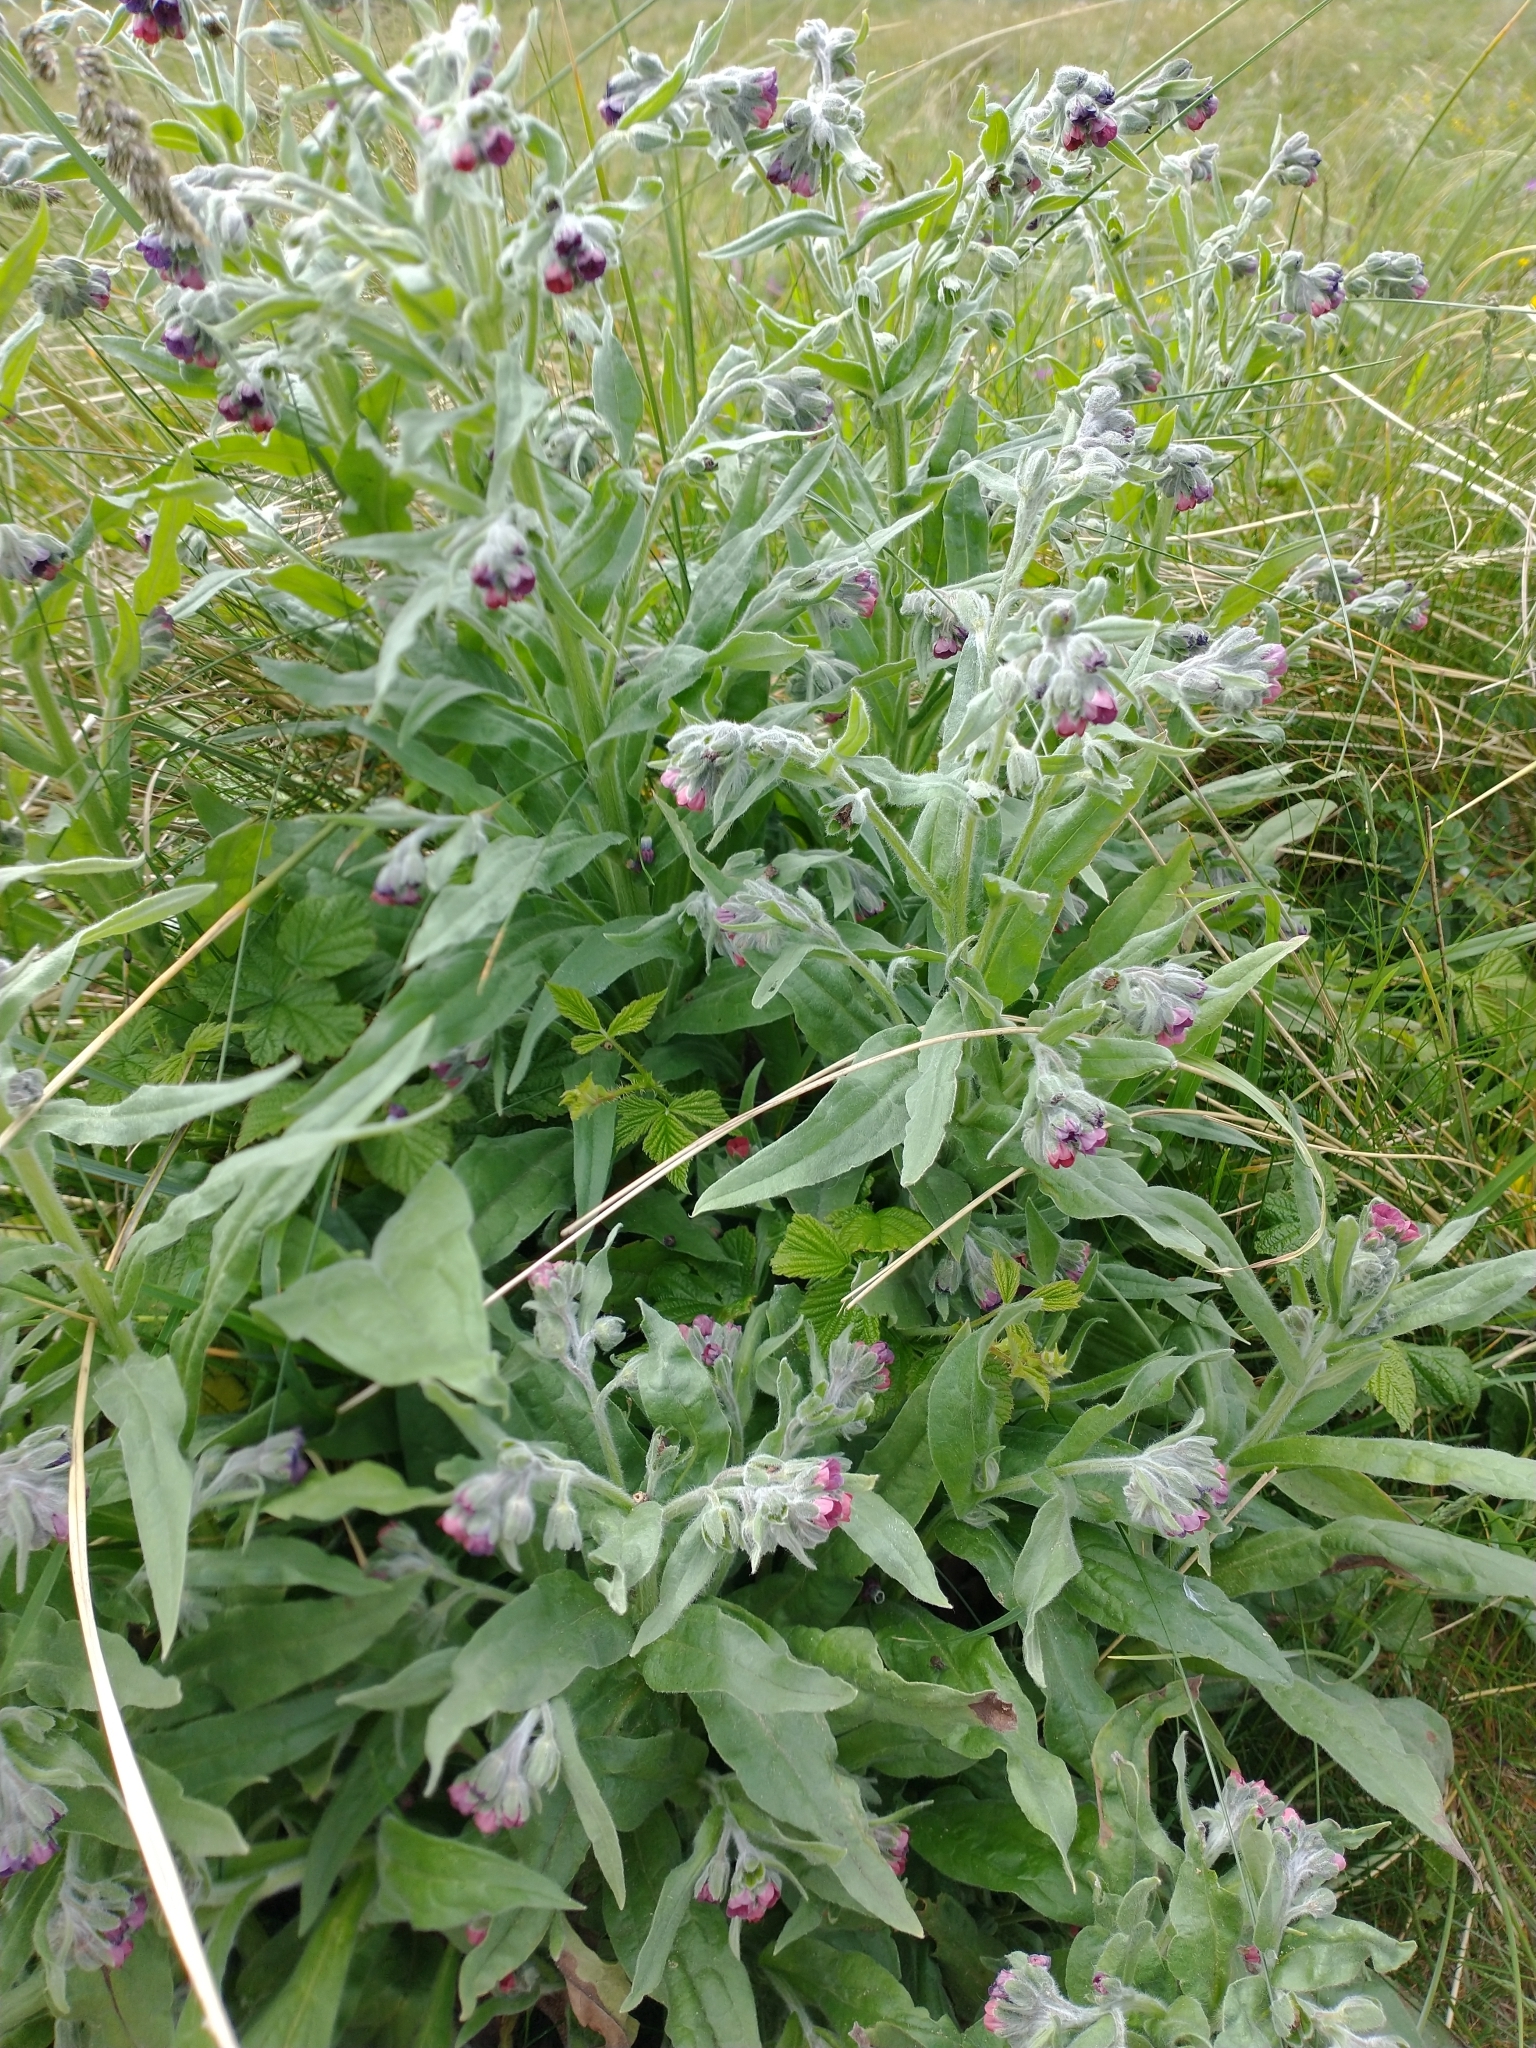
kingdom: Plantae
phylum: Tracheophyta
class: Magnoliopsida
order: Boraginales
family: Boraginaceae
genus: Cynoglossum
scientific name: Cynoglossum officinale
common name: Hound's-tongue
